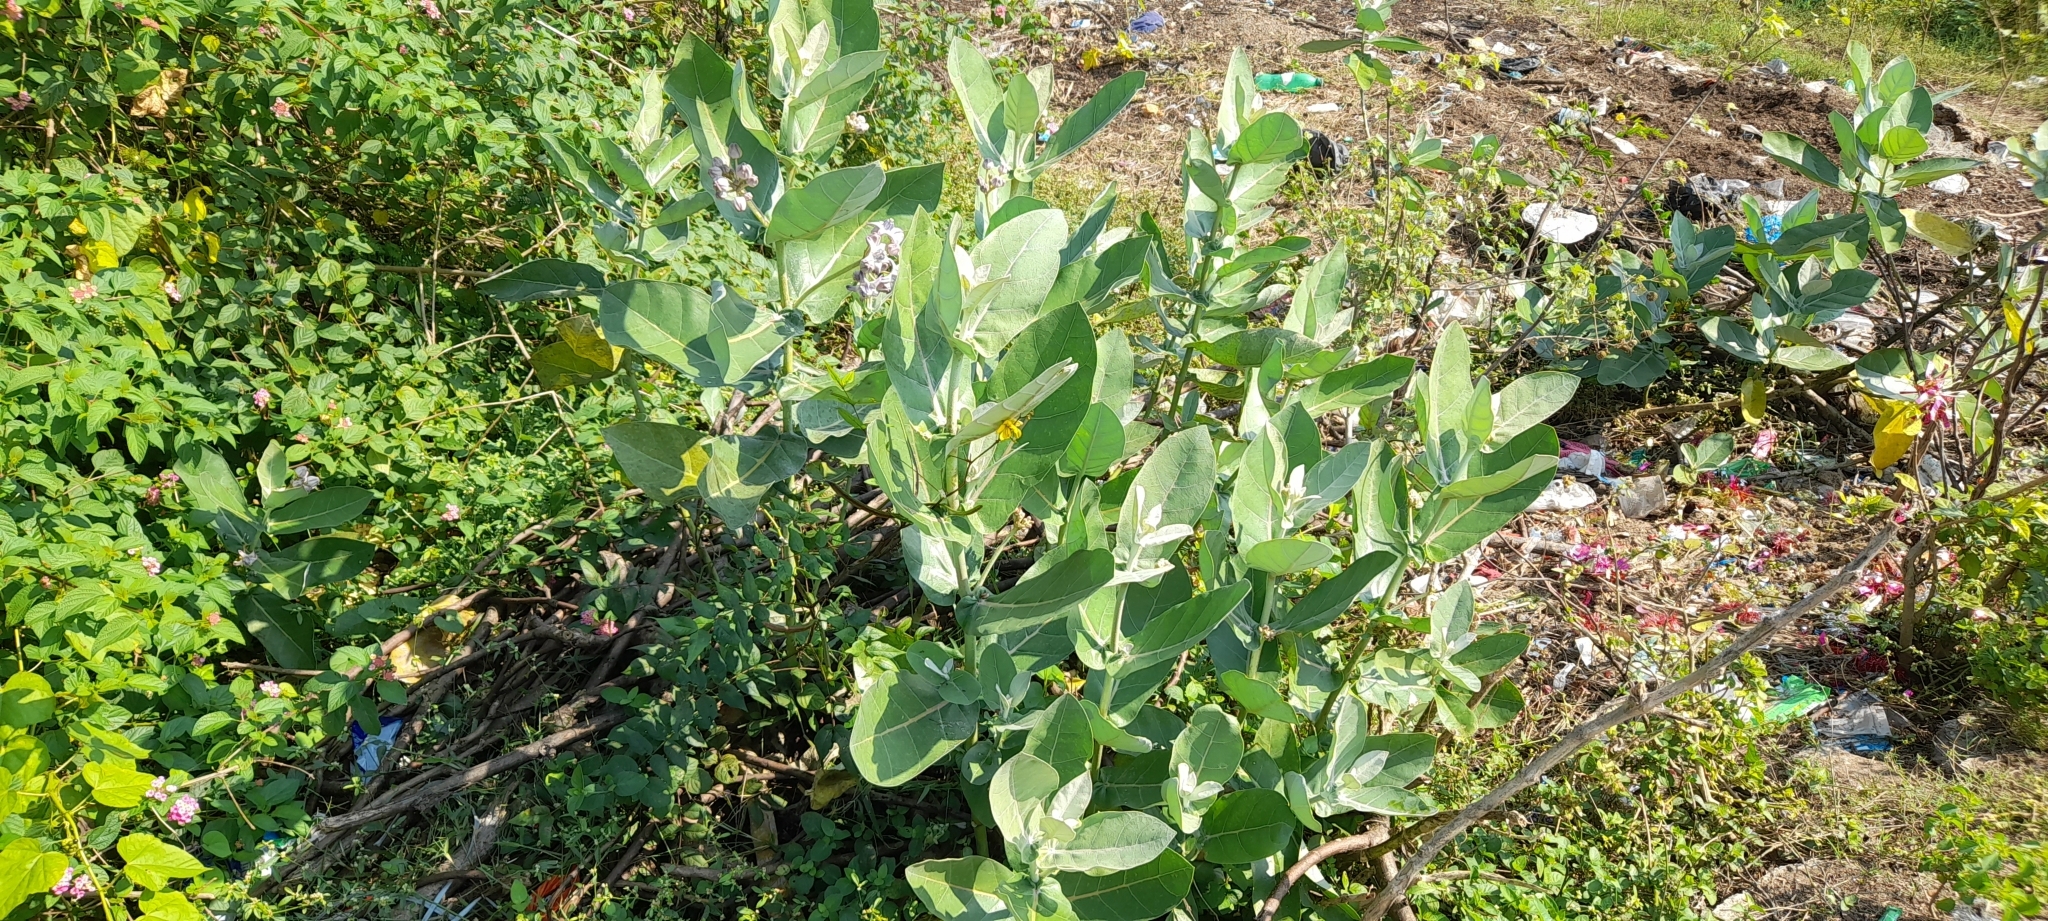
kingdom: Plantae
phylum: Tracheophyta
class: Magnoliopsida
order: Gentianales
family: Apocynaceae
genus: Calotropis
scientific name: Calotropis gigantea
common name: Crown flower
